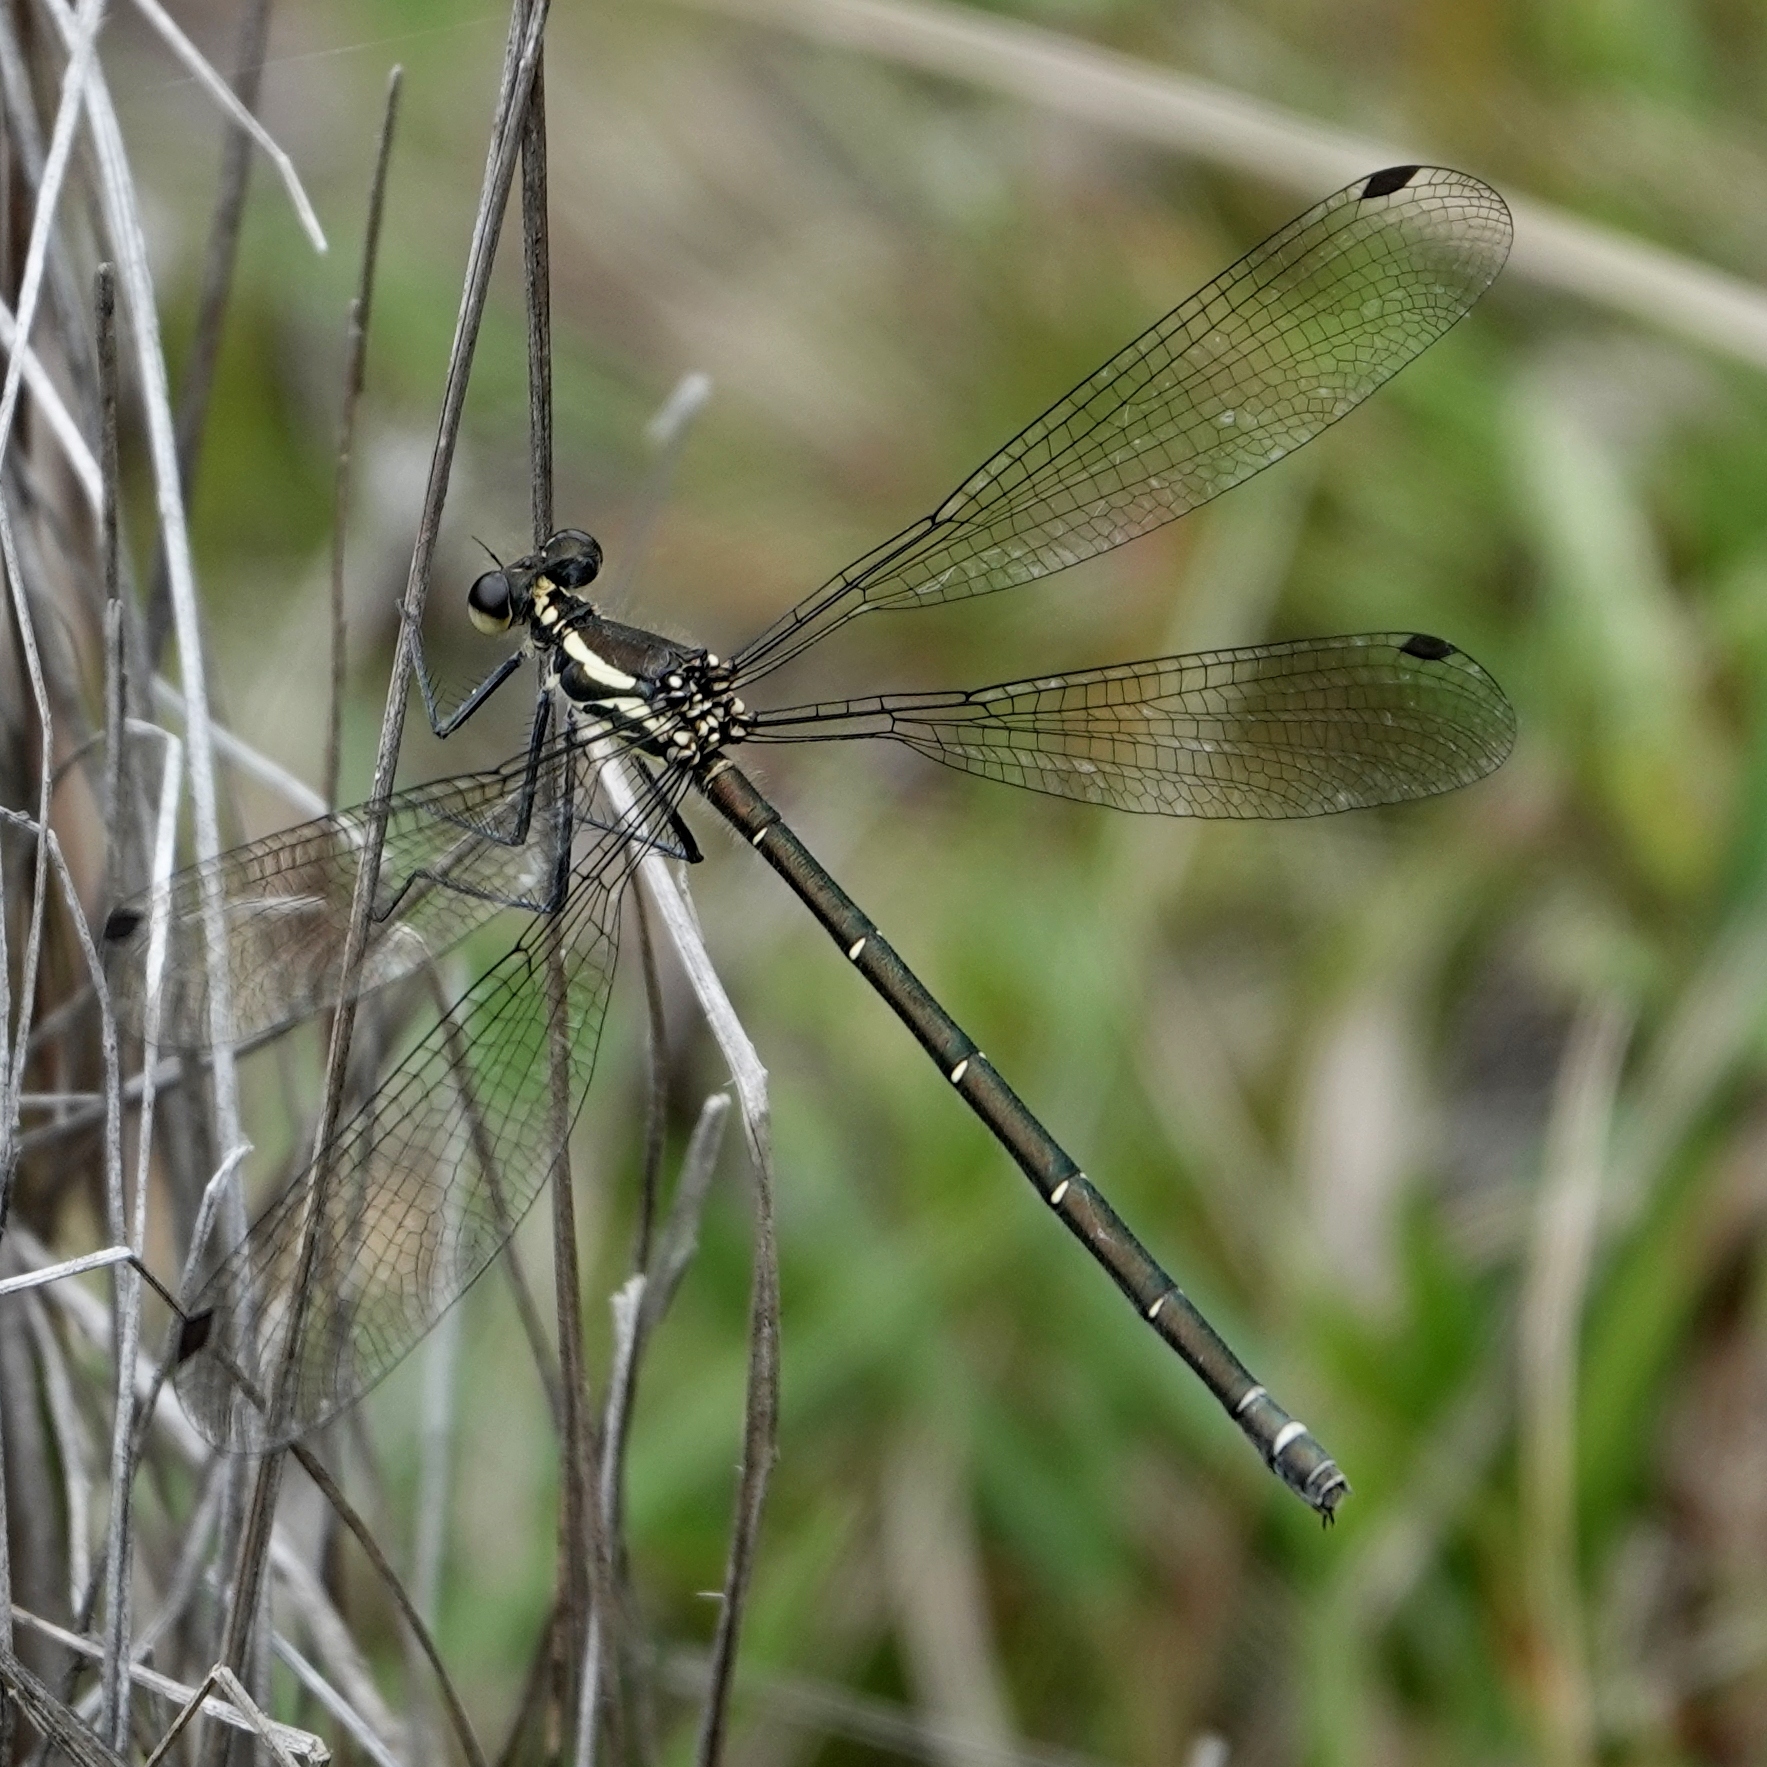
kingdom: Animalia
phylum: Arthropoda
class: Insecta
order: Odonata
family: Argiolestidae
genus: Austroargiolestes
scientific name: Austroargiolestes icteromelas
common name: Common flatwing
